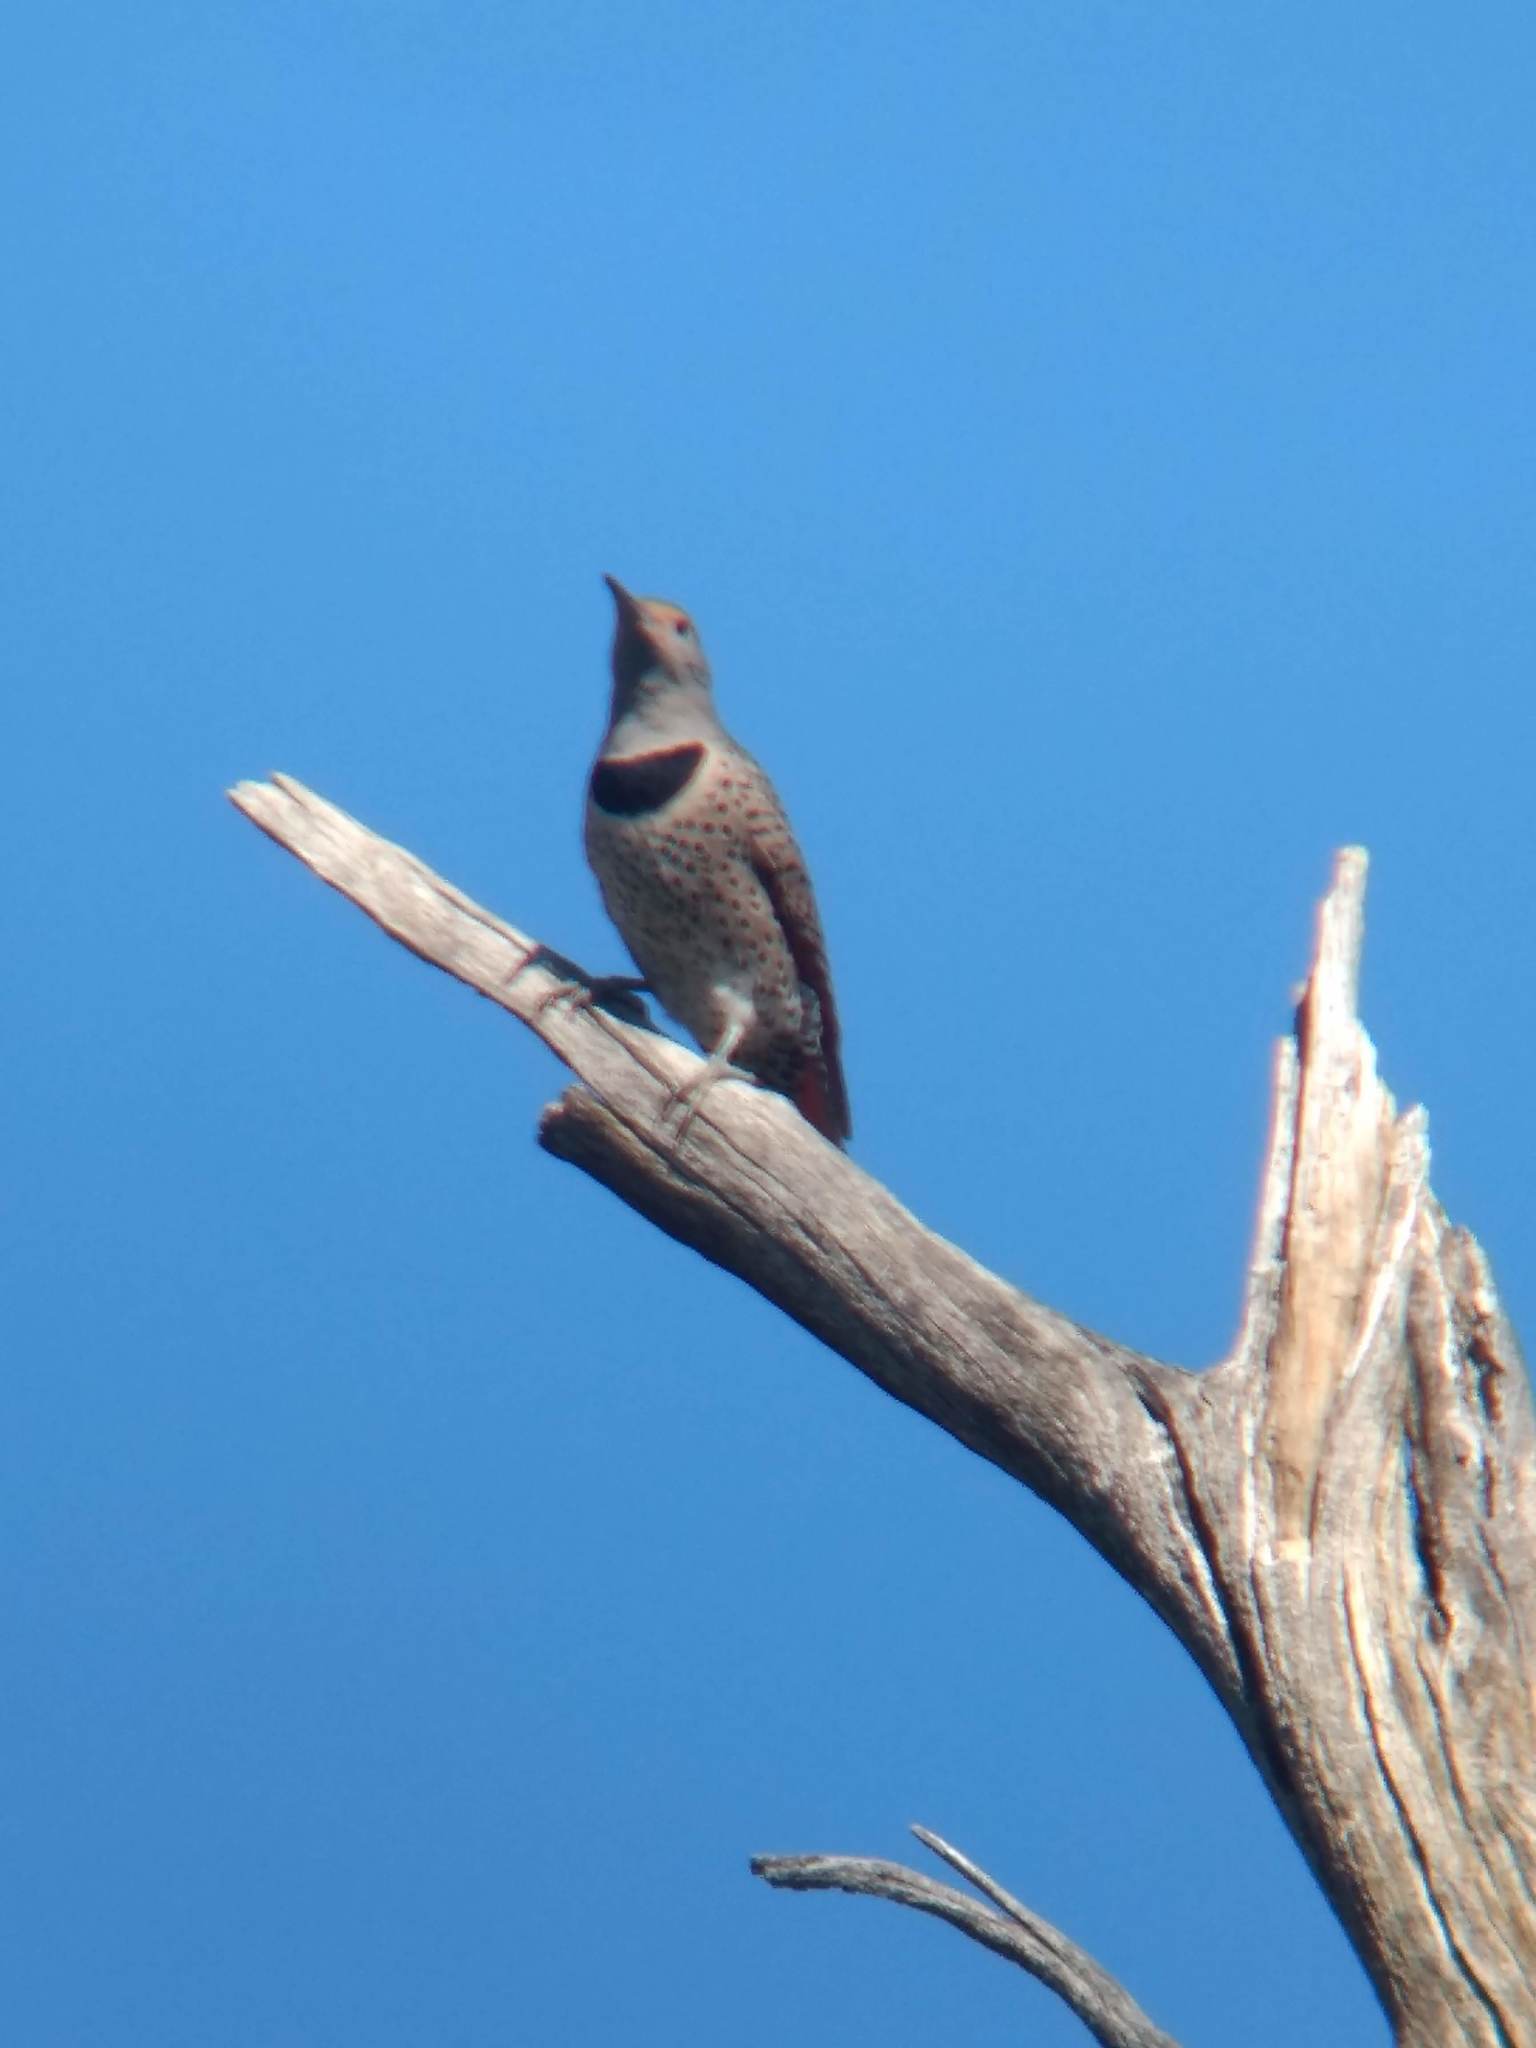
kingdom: Animalia
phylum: Chordata
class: Aves
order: Piciformes
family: Picidae
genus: Colaptes
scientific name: Colaptes auratus
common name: Northern flicker
